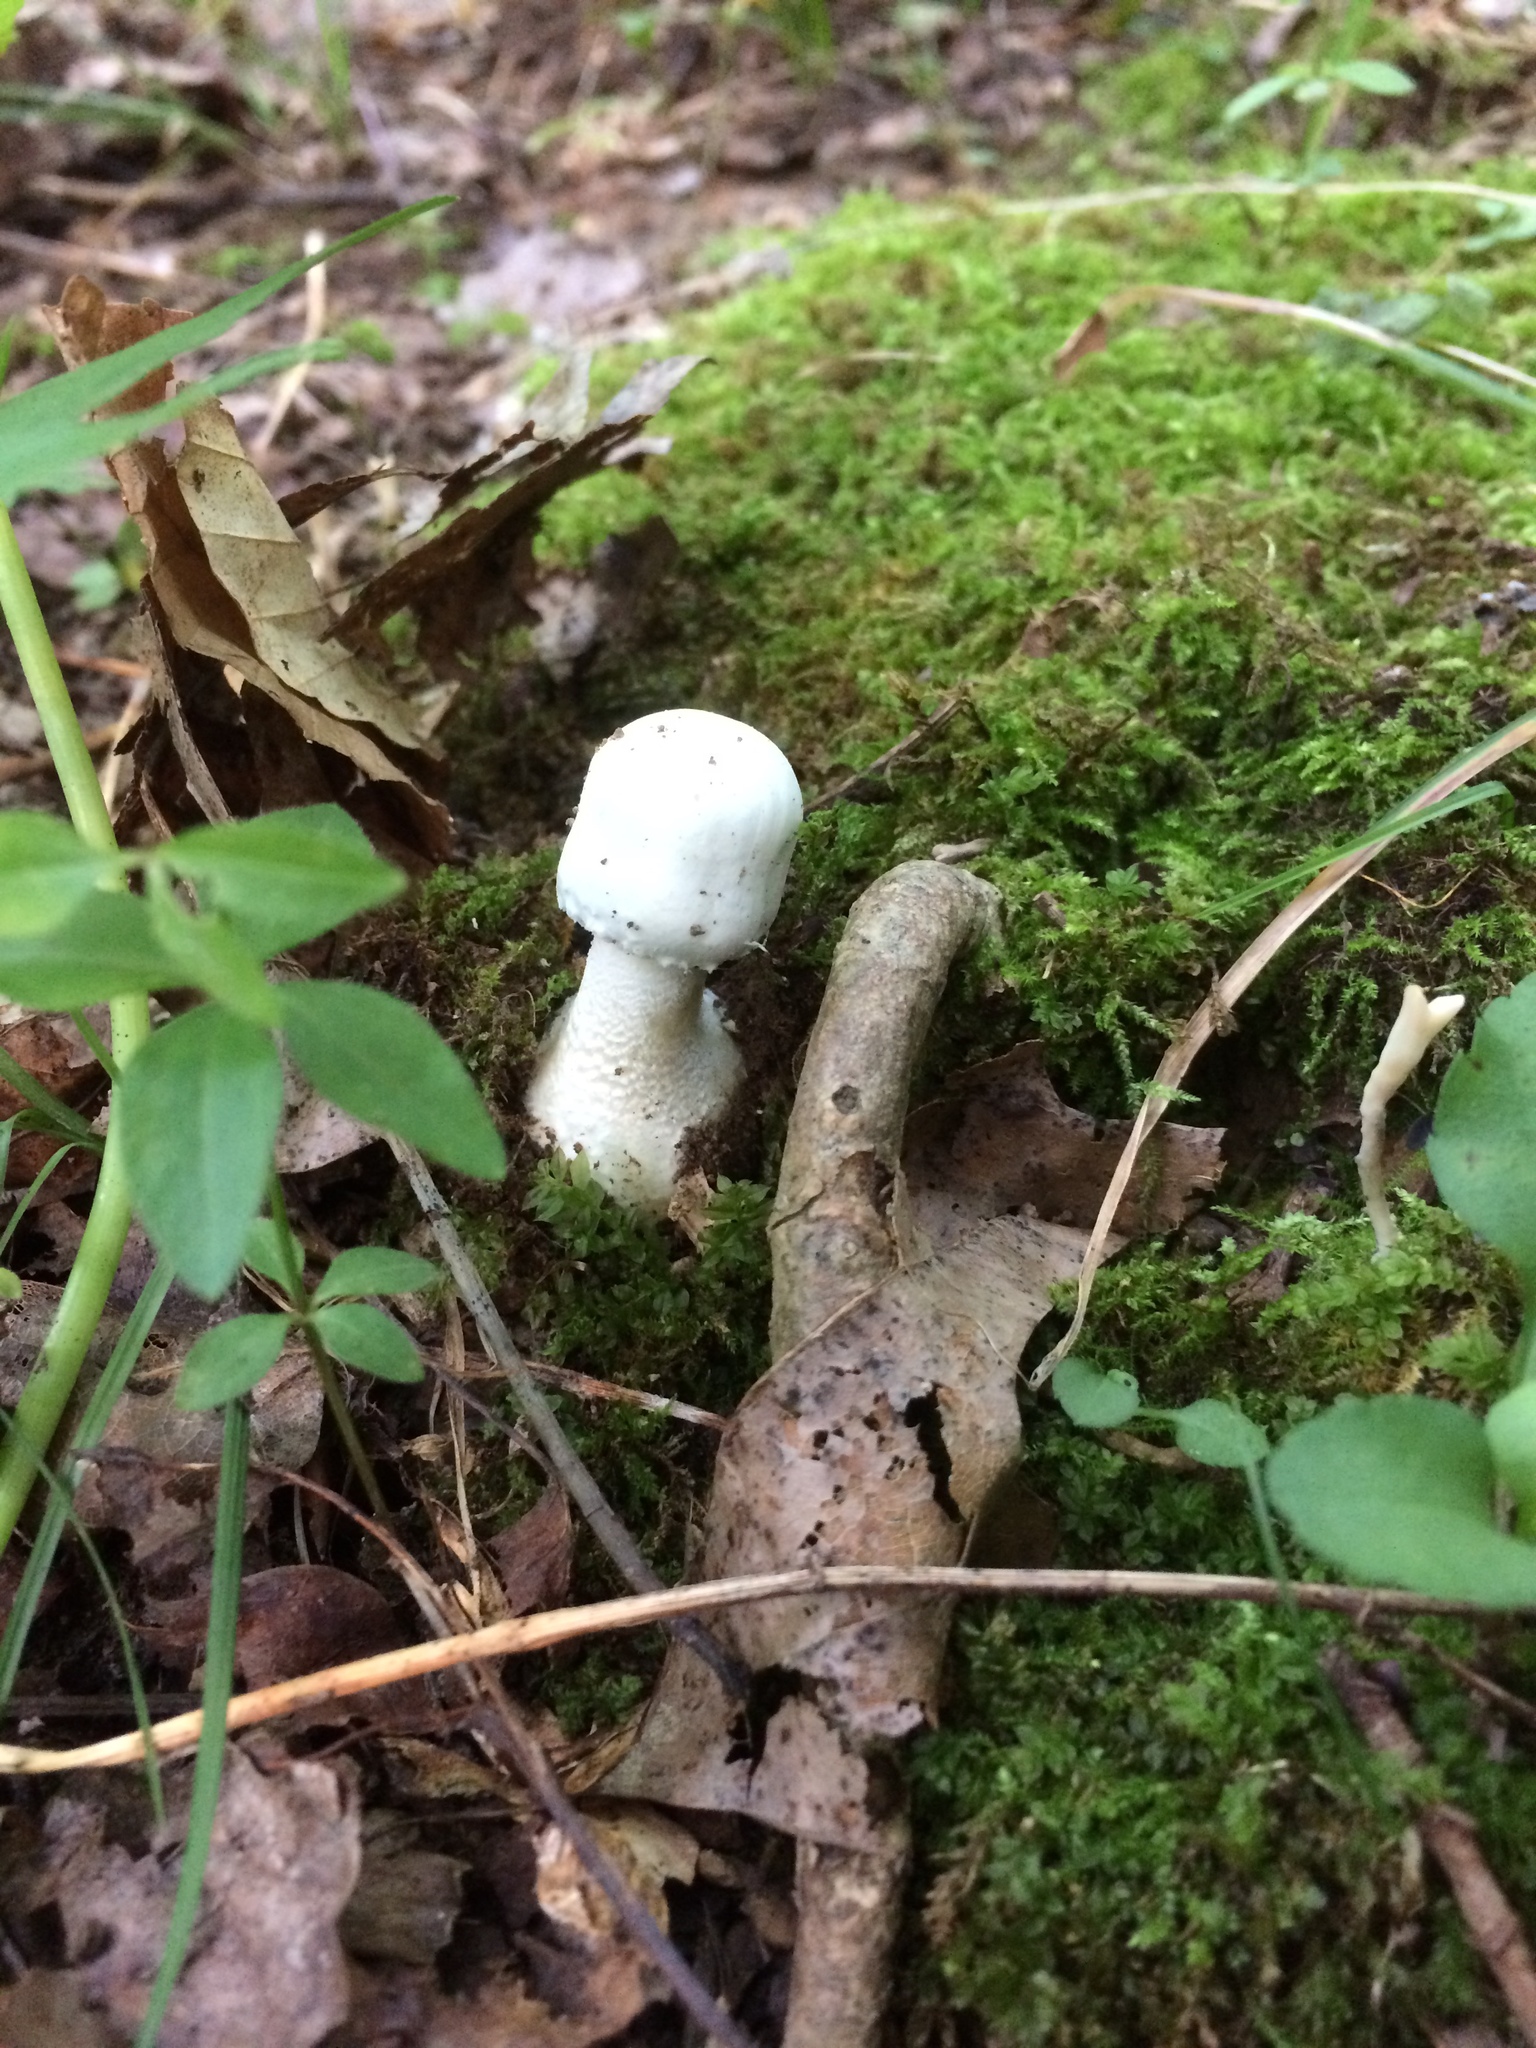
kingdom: Fungi
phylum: Basidiomycota
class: Agaricomycetes
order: Agaricales
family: Agaricaceae
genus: Agaricus
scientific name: Agaricus butyreburneus
